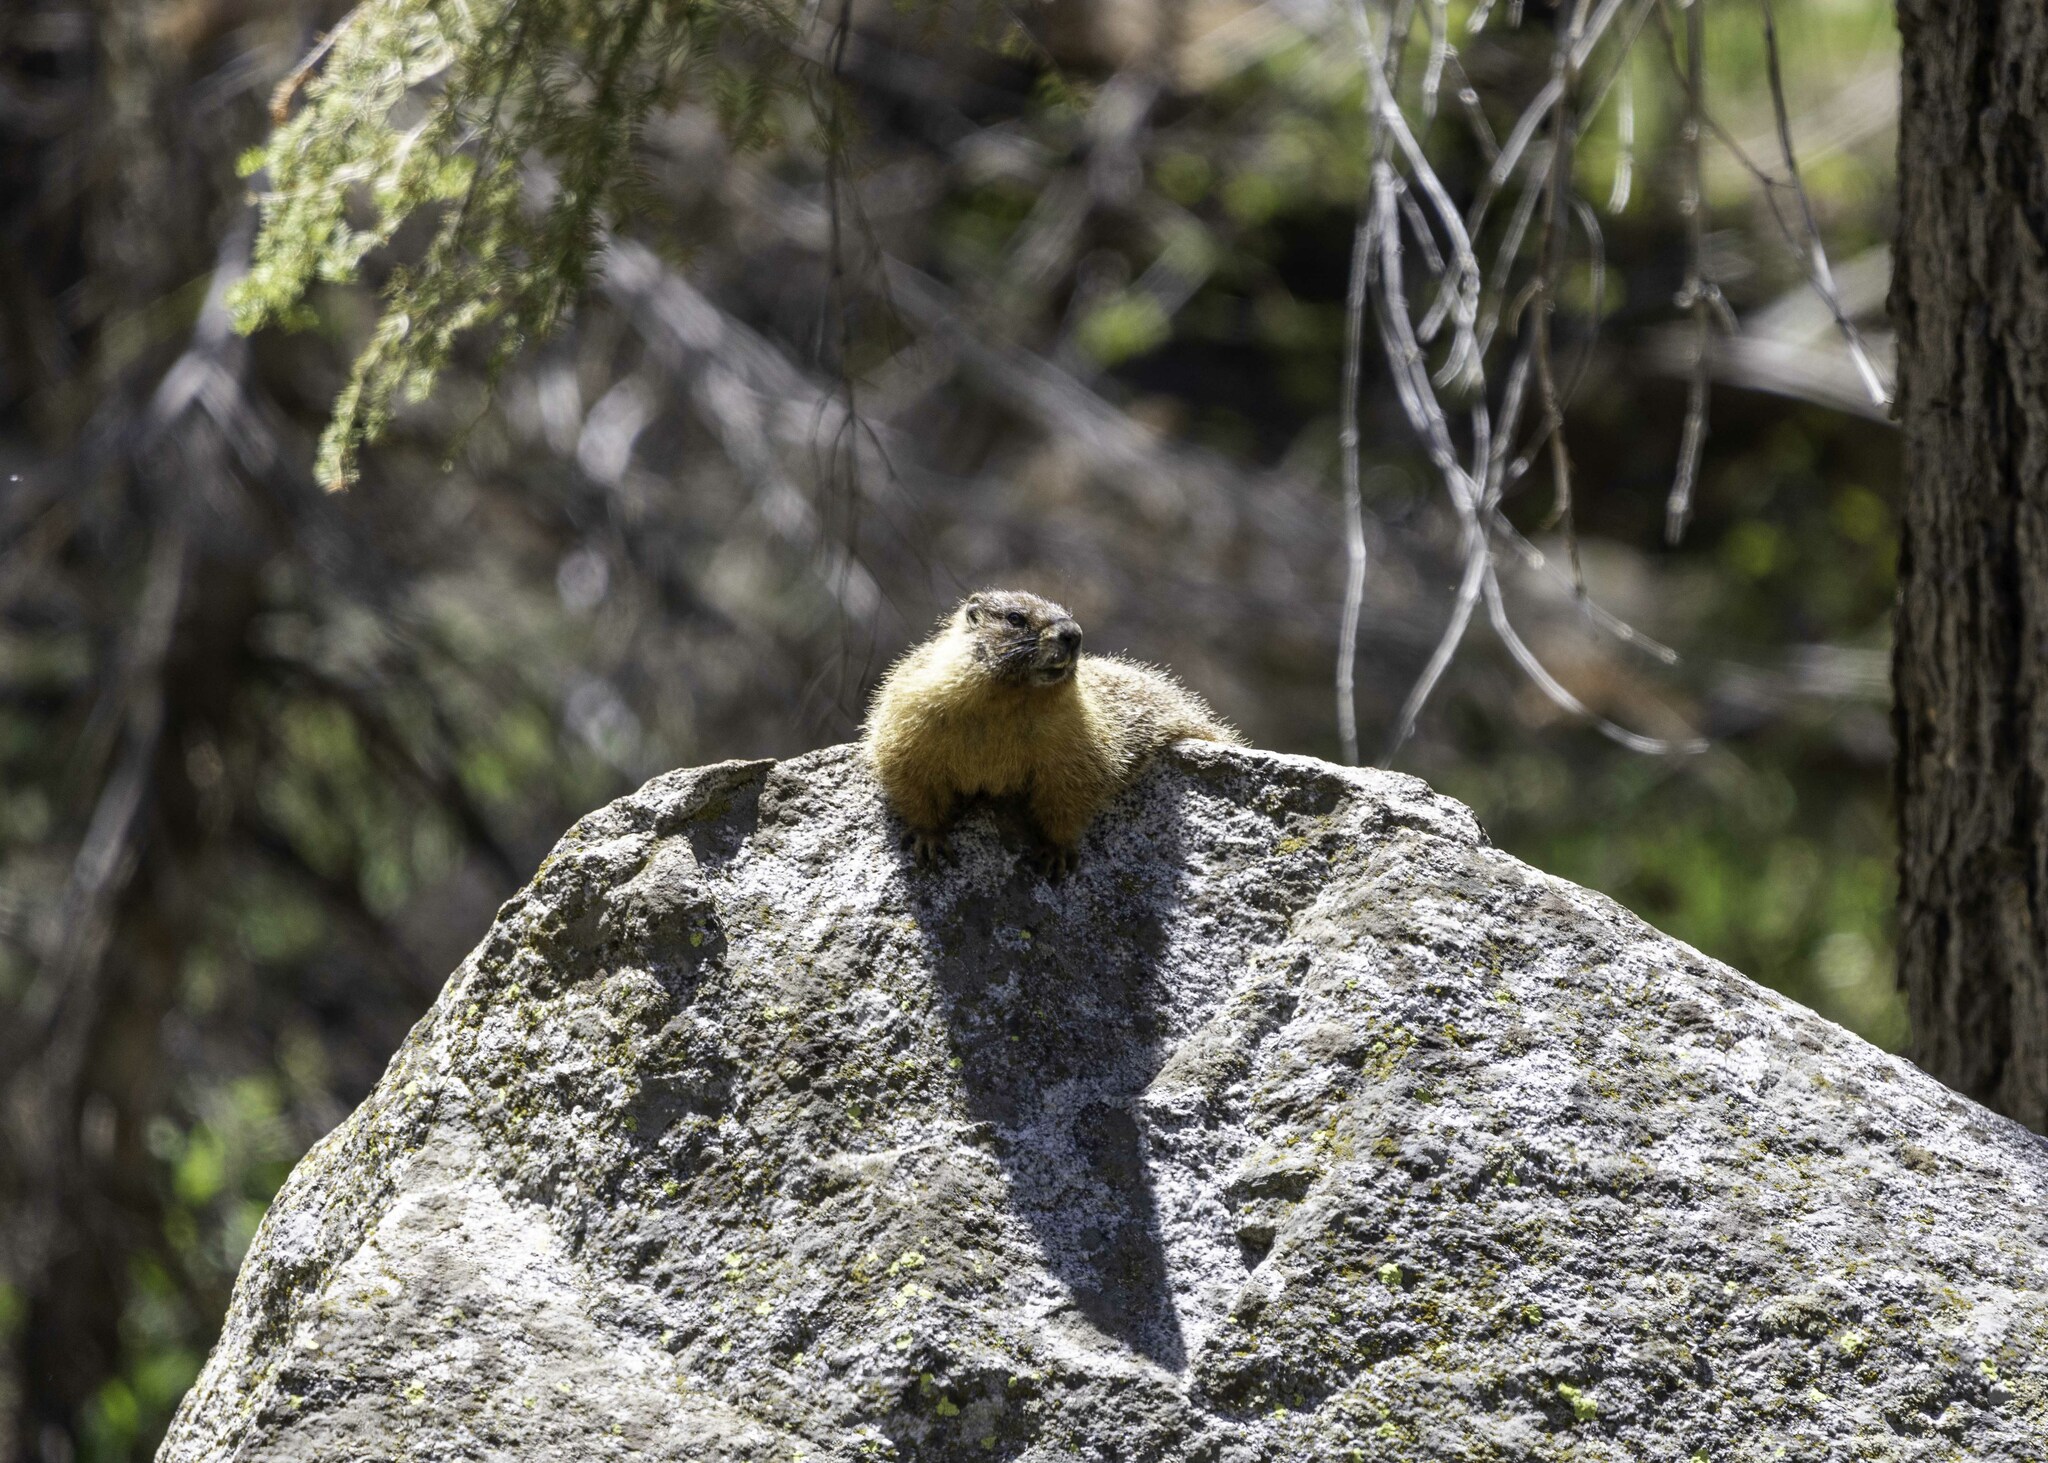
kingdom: Animalia
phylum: Chordata
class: Mammalia
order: Rodentia
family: Sciuridae
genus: Marmota
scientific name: Marmota flaviventris
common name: Yellow-bellied marmot
